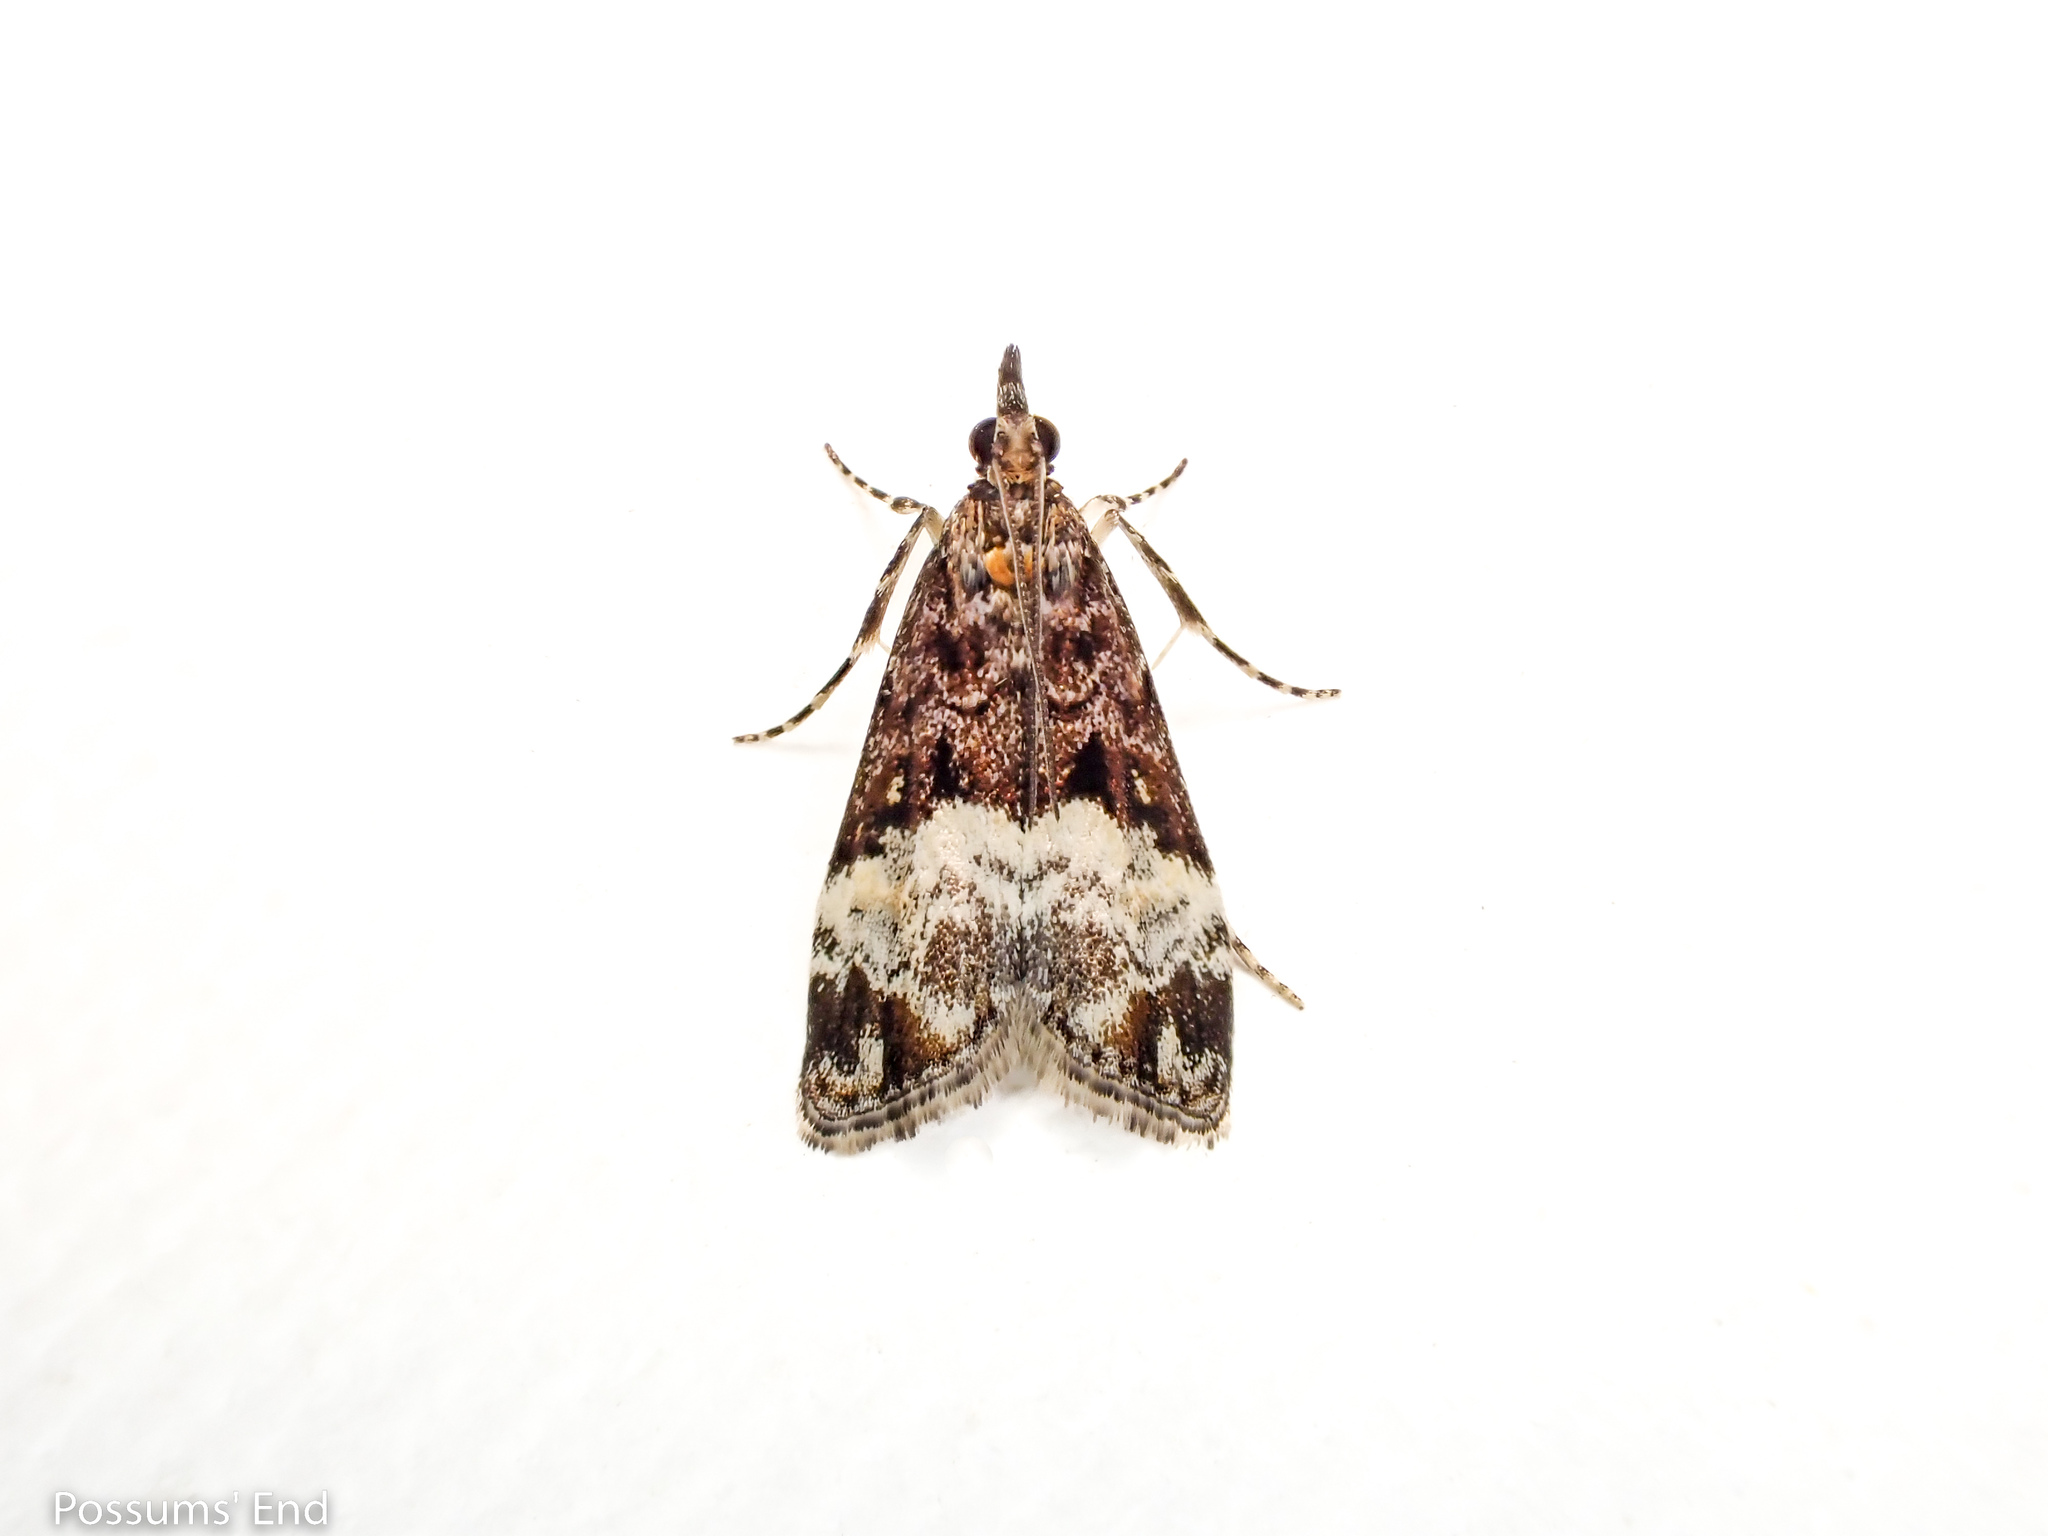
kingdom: Animalia
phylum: Arthropoda
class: Insecta
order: Lepidoptera
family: Crambidae
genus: Scoparia
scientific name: Scoparia minusculalis
